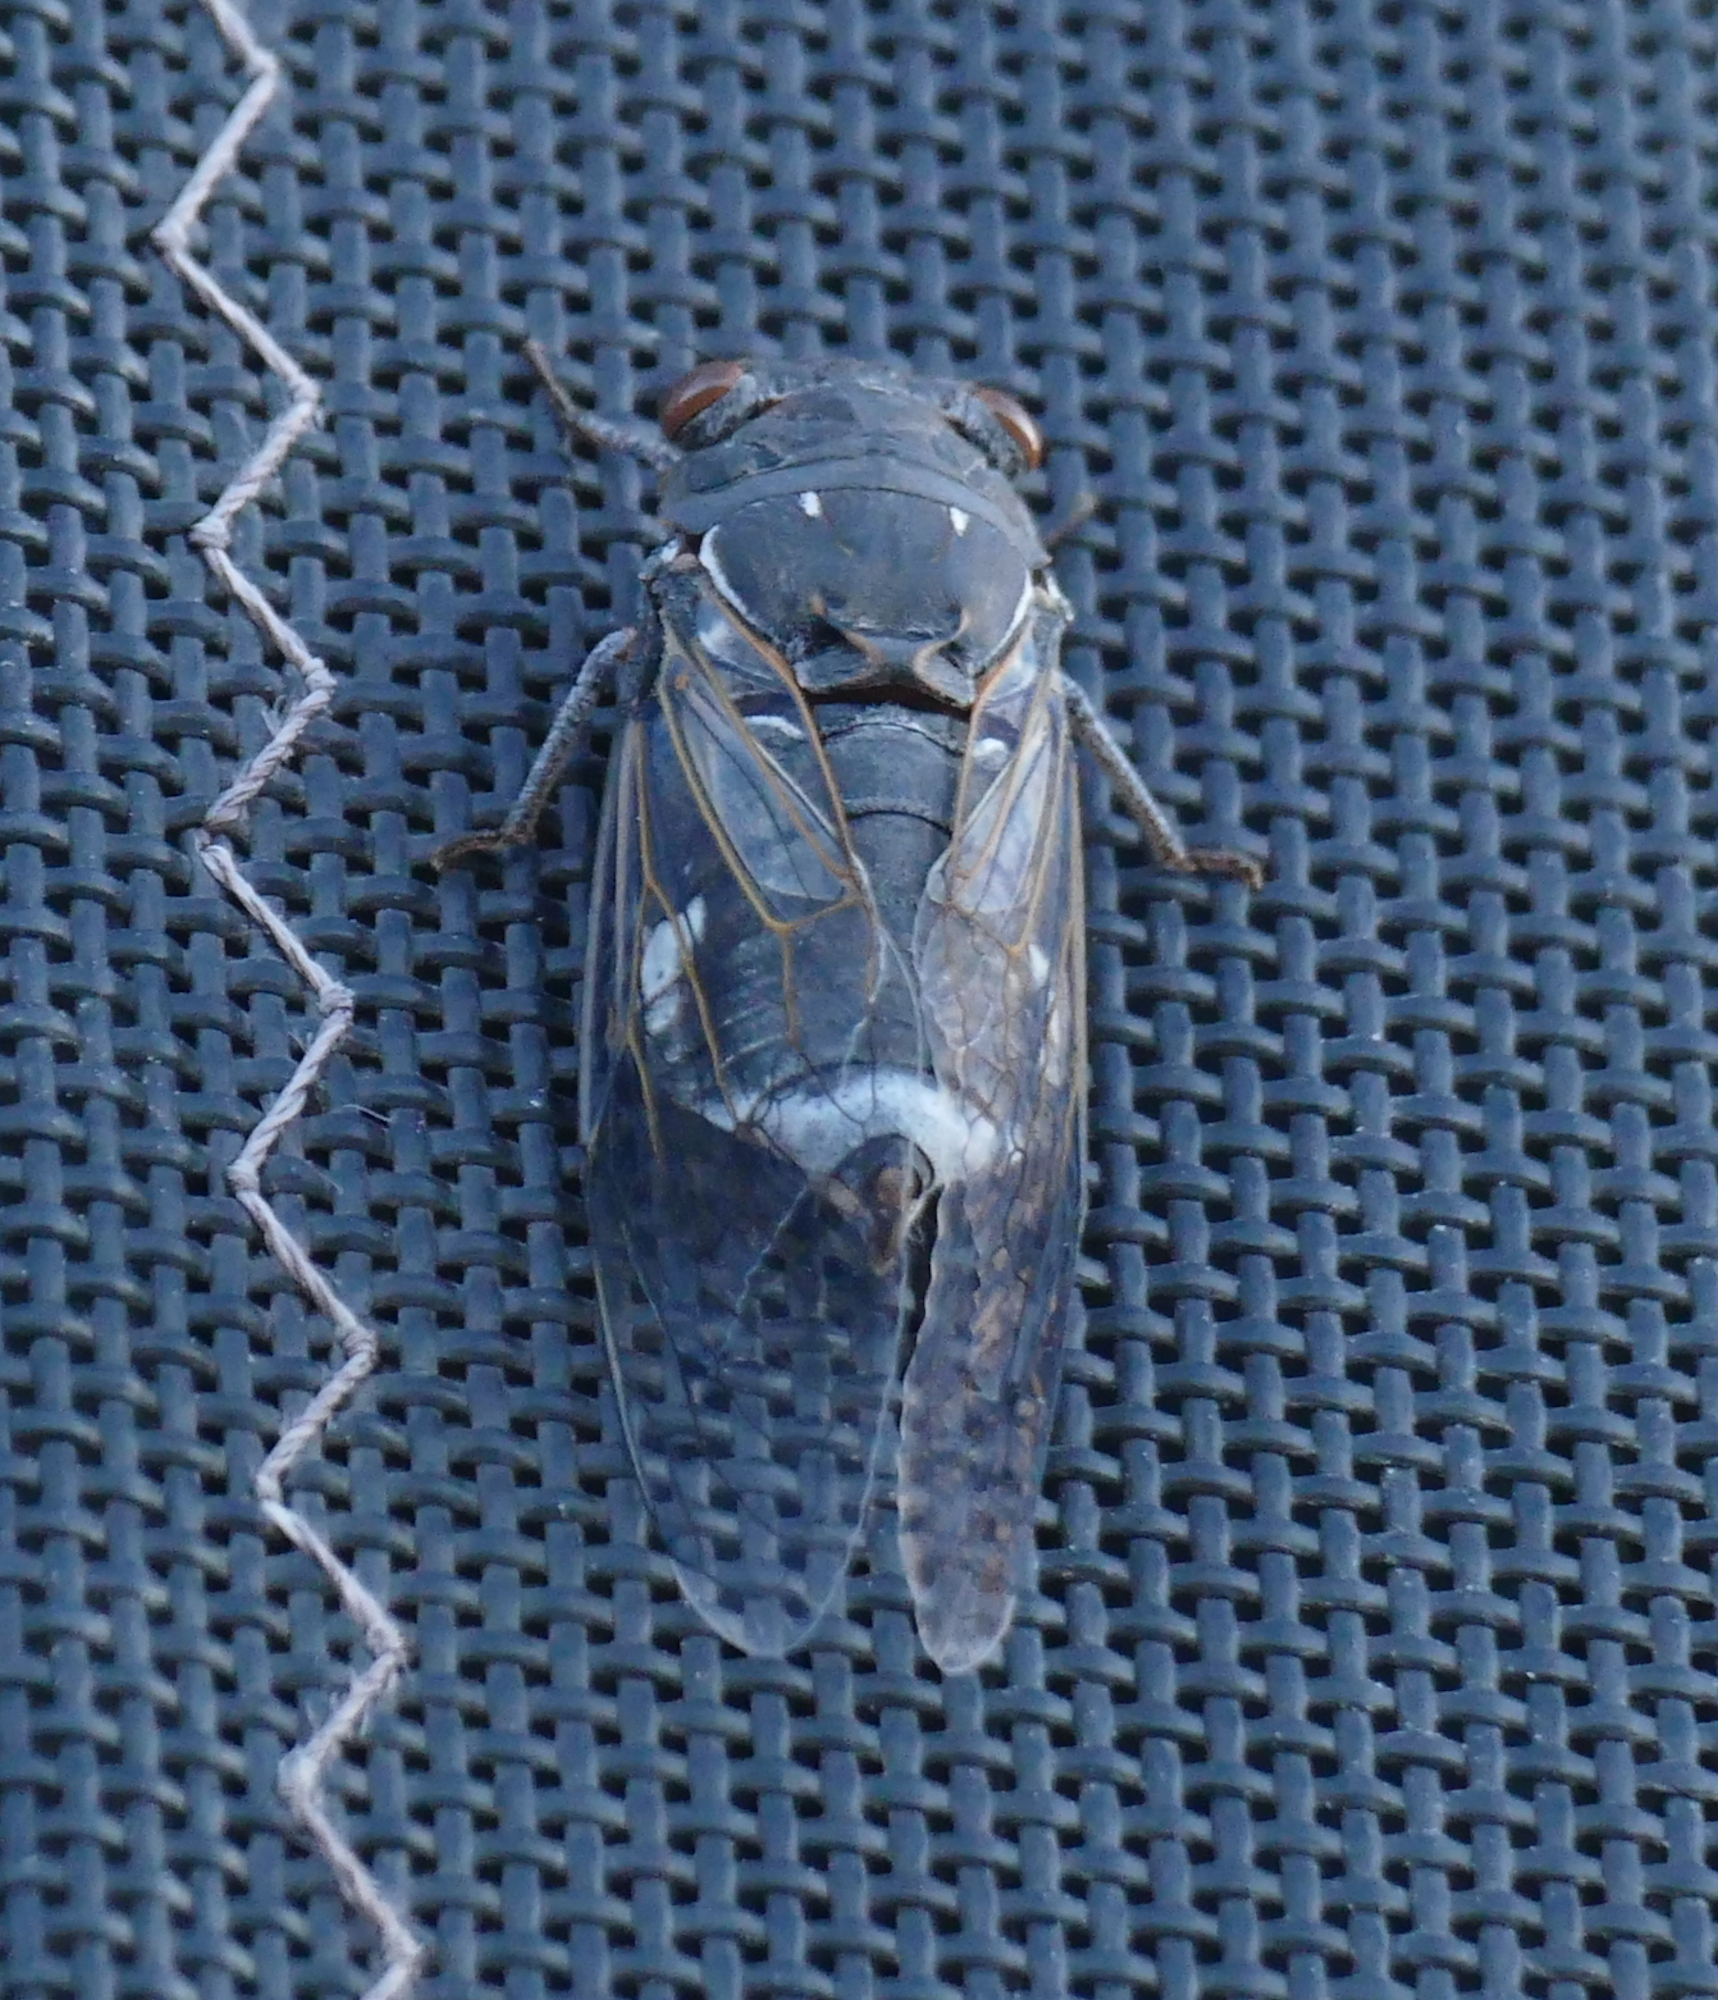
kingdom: Animalia
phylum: Arthropoda
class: Insecta
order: Hemiptera
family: Cicadidae
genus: Hadoa
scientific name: Hadoa chiricahua
